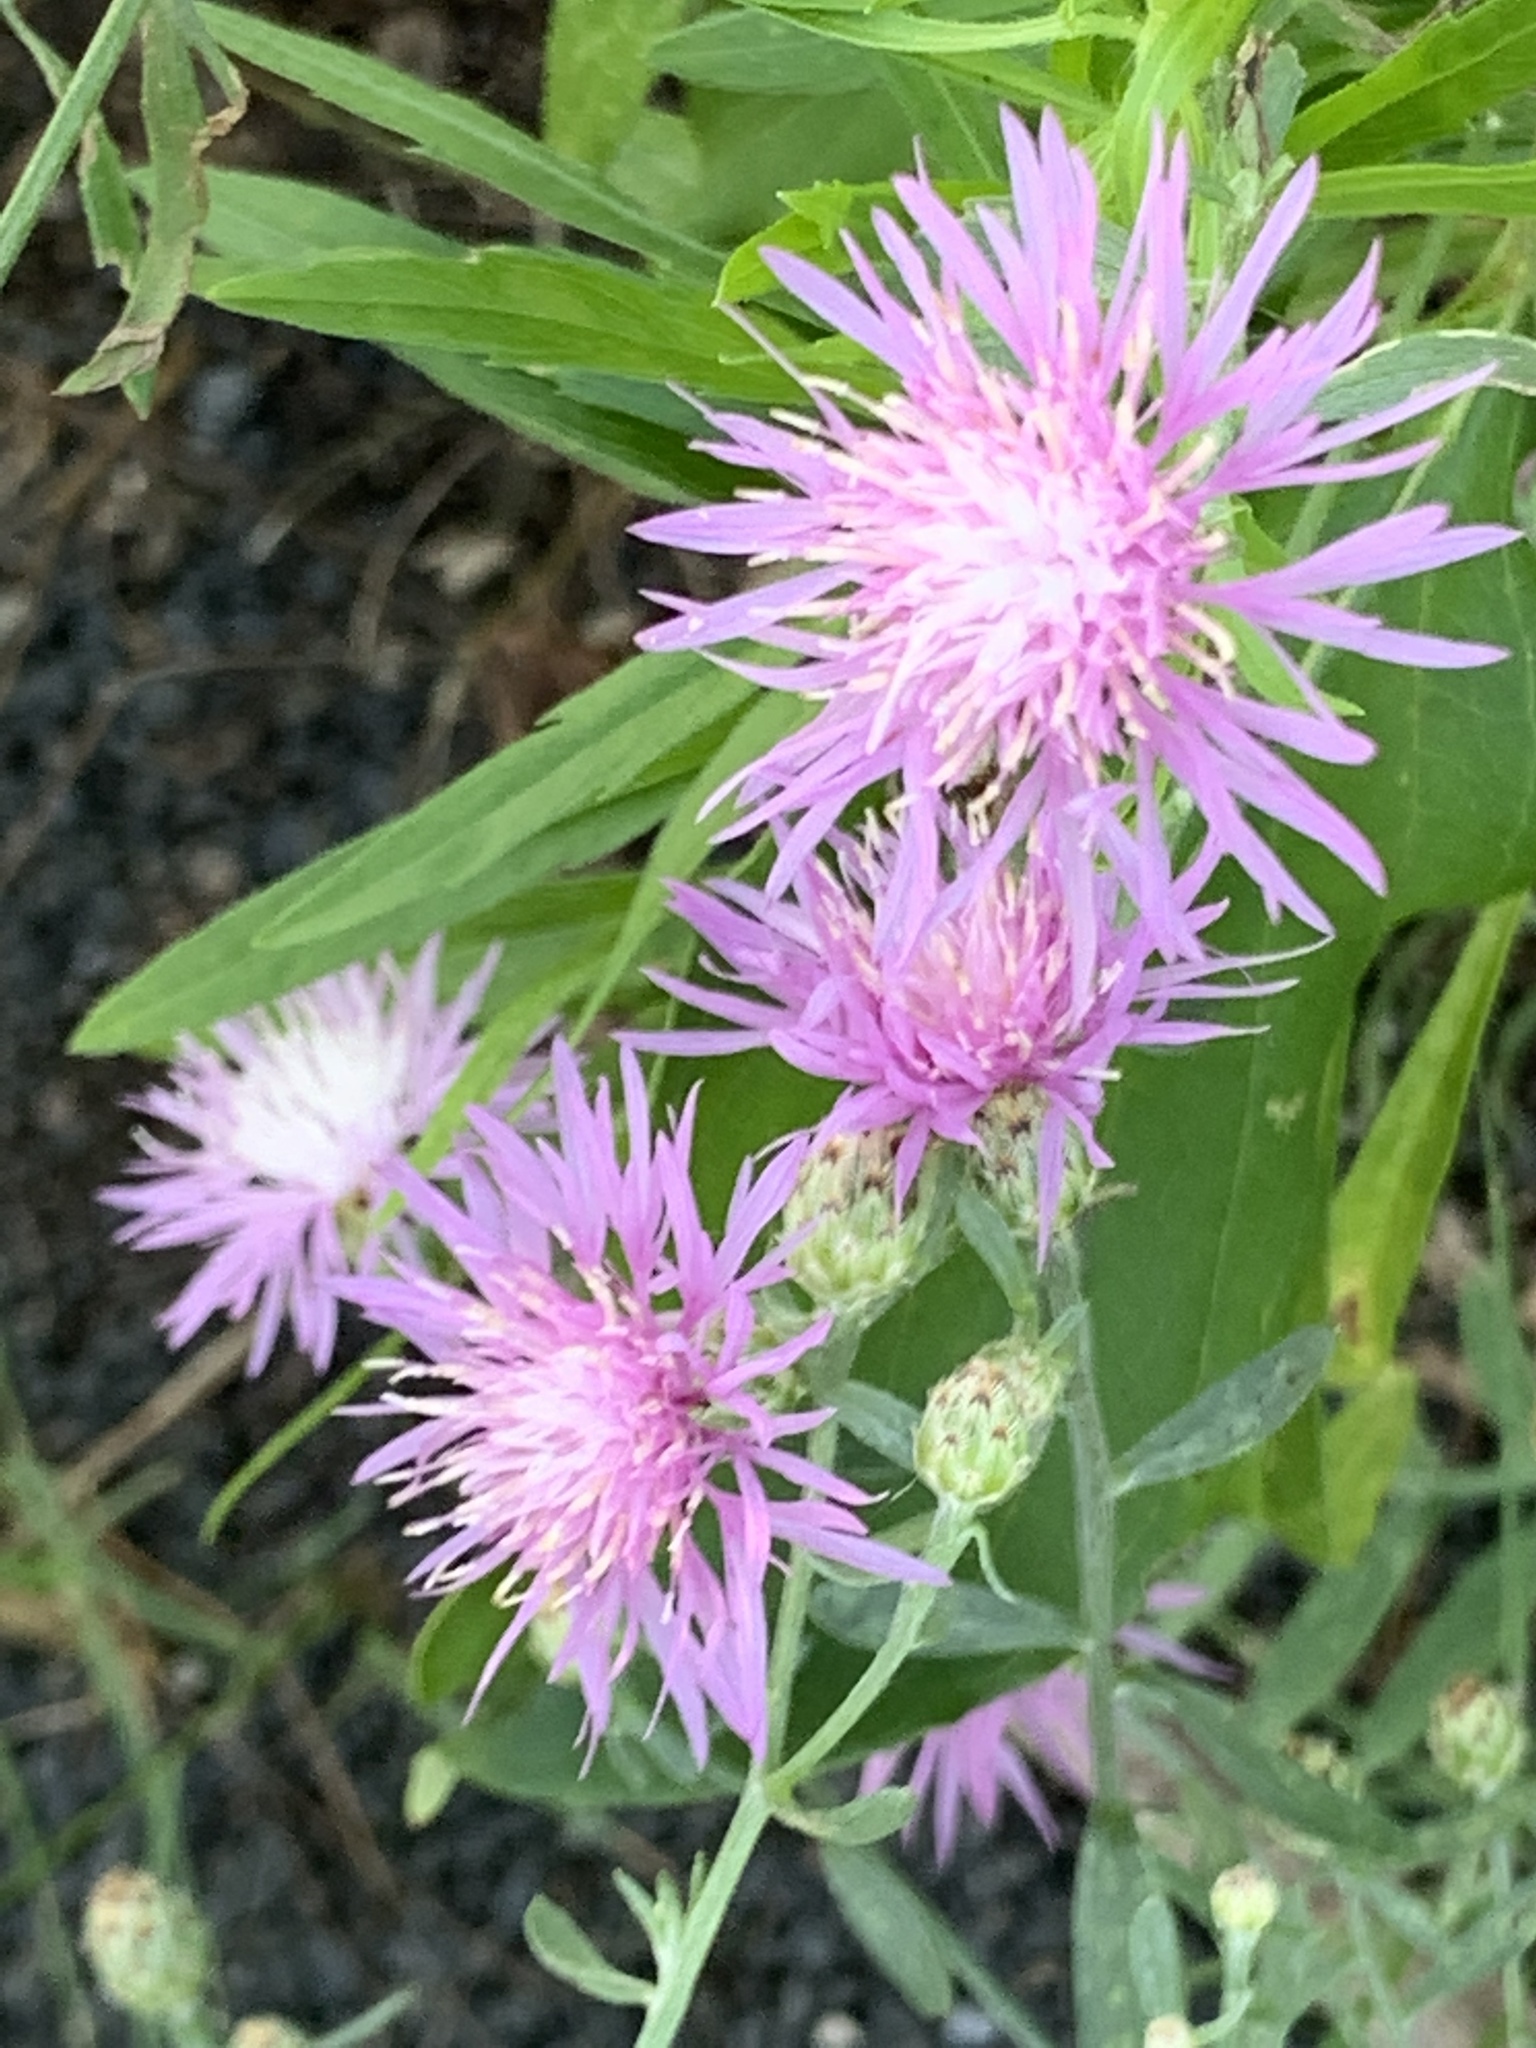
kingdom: Plantae
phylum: Tracheophyta
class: Magnoliopsida
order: Asterales
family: Asteraceae
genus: Centaurea
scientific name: Centaurea stoebe
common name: Spotted knapweed
